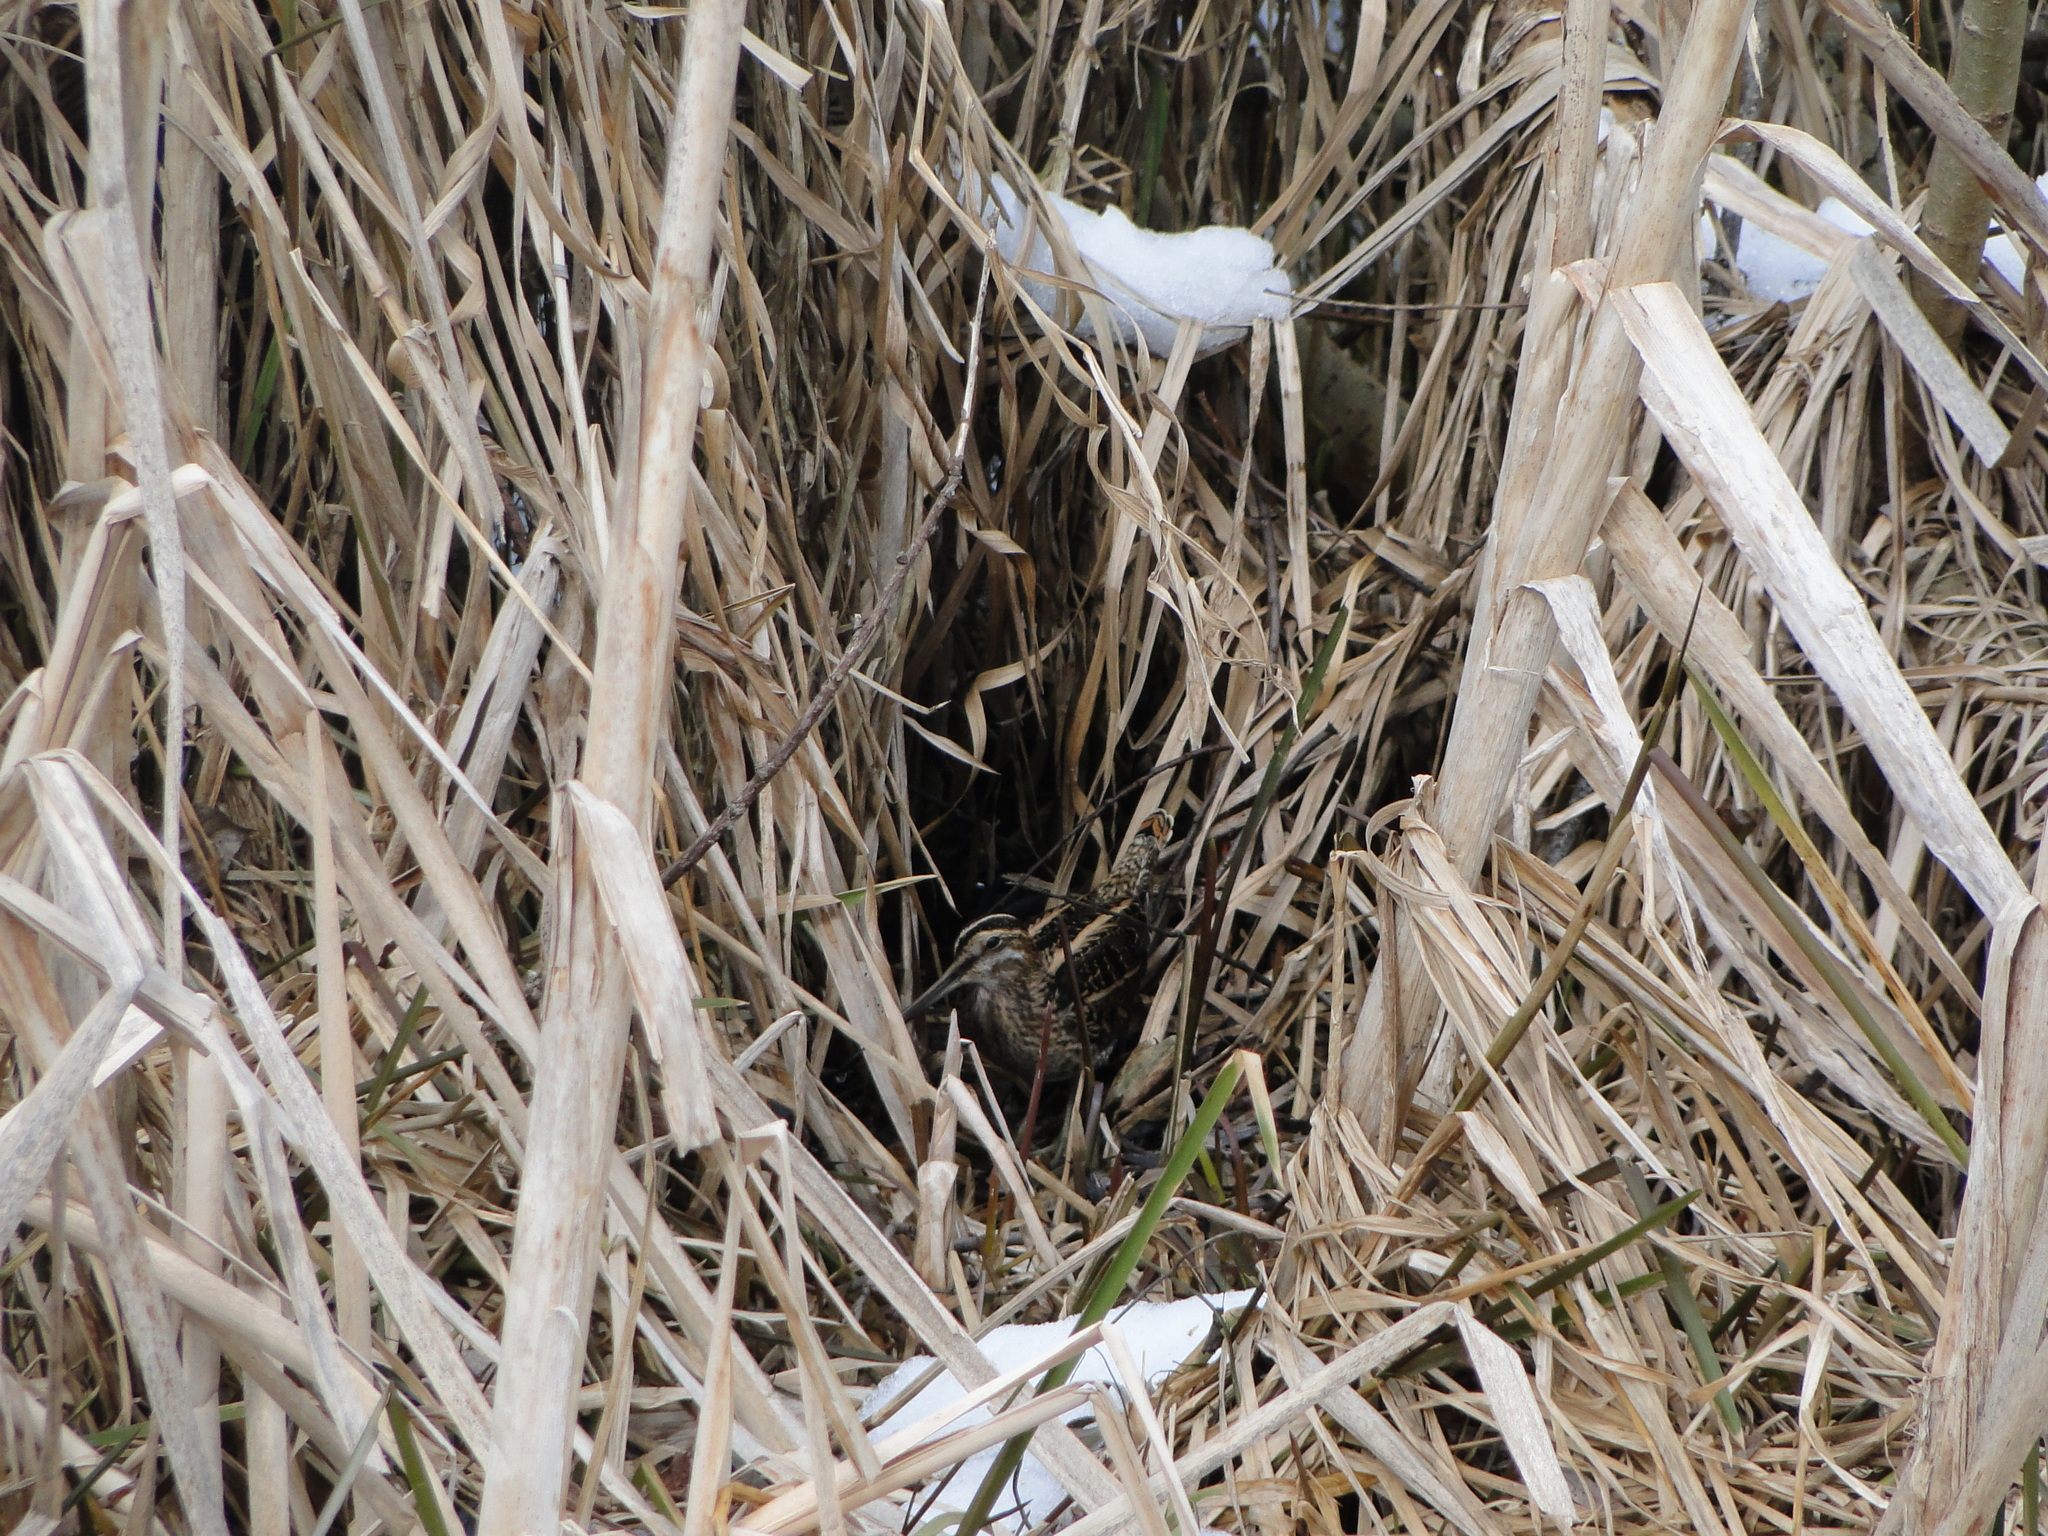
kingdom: Animalia
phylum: Chordata
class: Aves
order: Charadriiformes
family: Scolopacidae
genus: Gallinago
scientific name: Gallinago gallinago
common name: Common snipe
